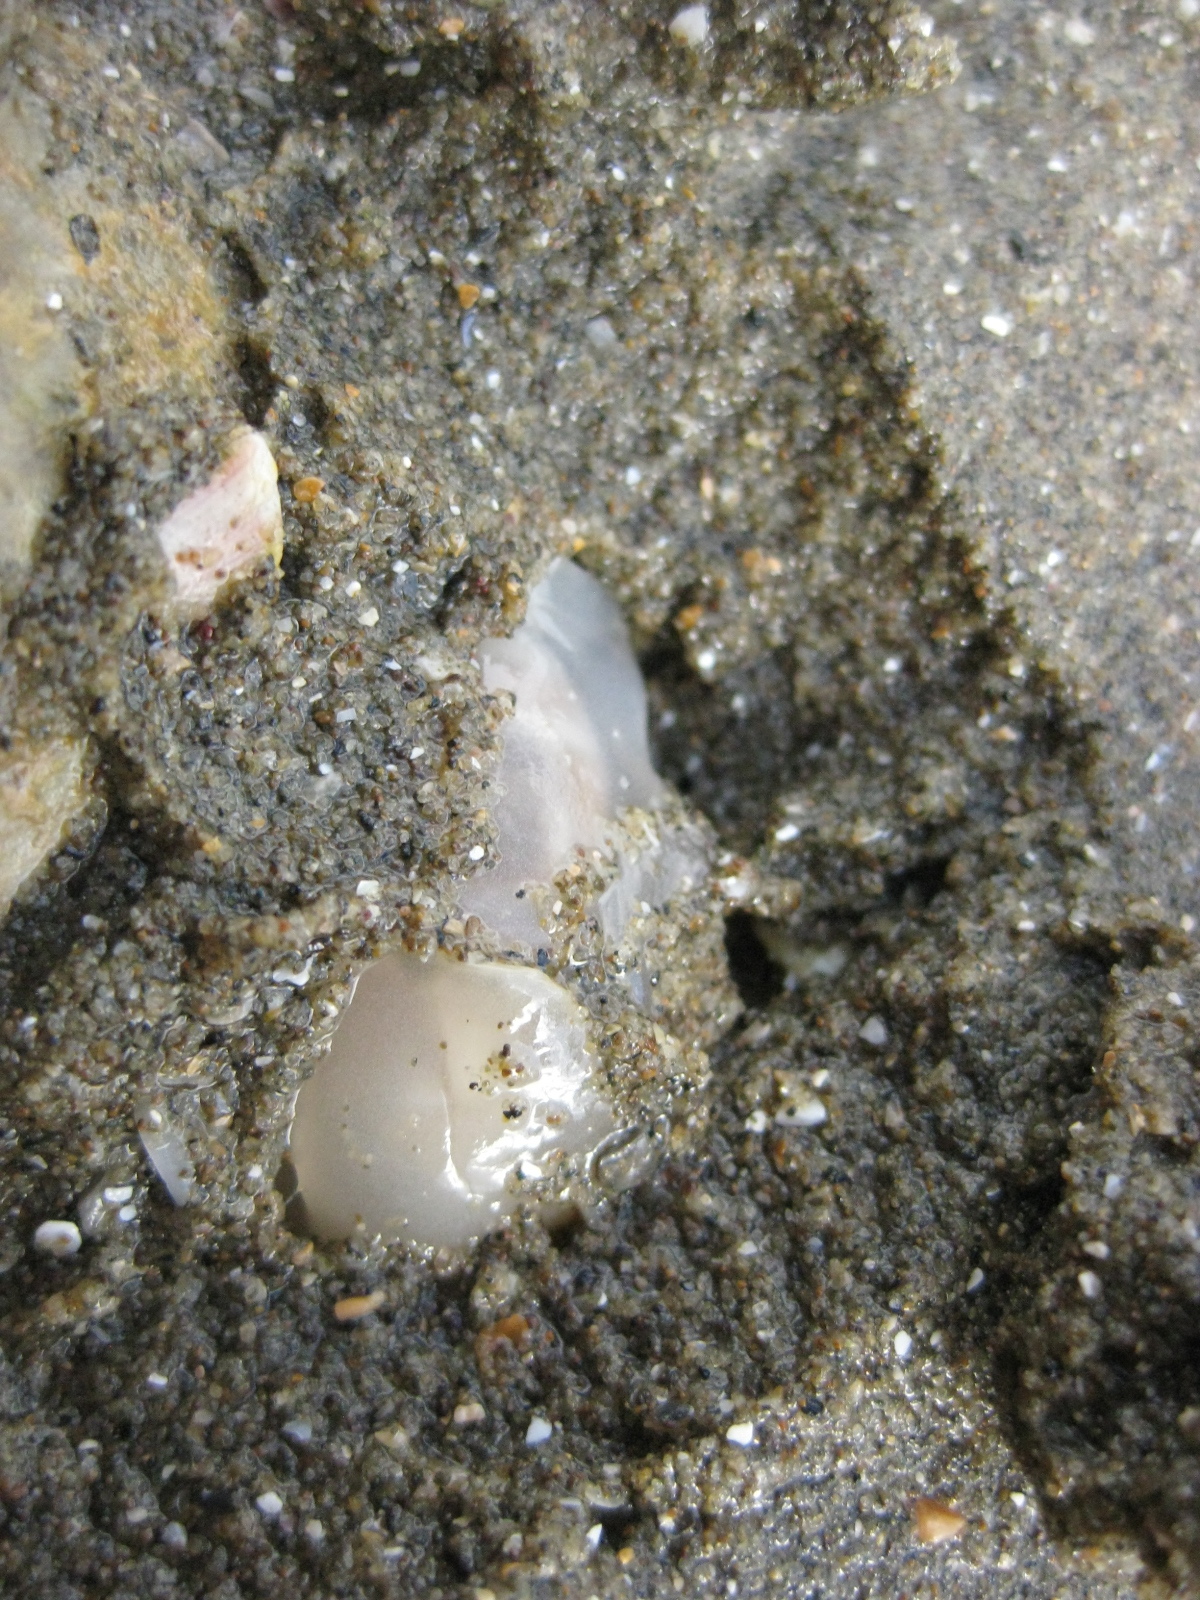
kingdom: Animalia
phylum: Mollusca
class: Gastropoda
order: Cephalaspidea
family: Philinidae
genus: Philine
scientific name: Philine
